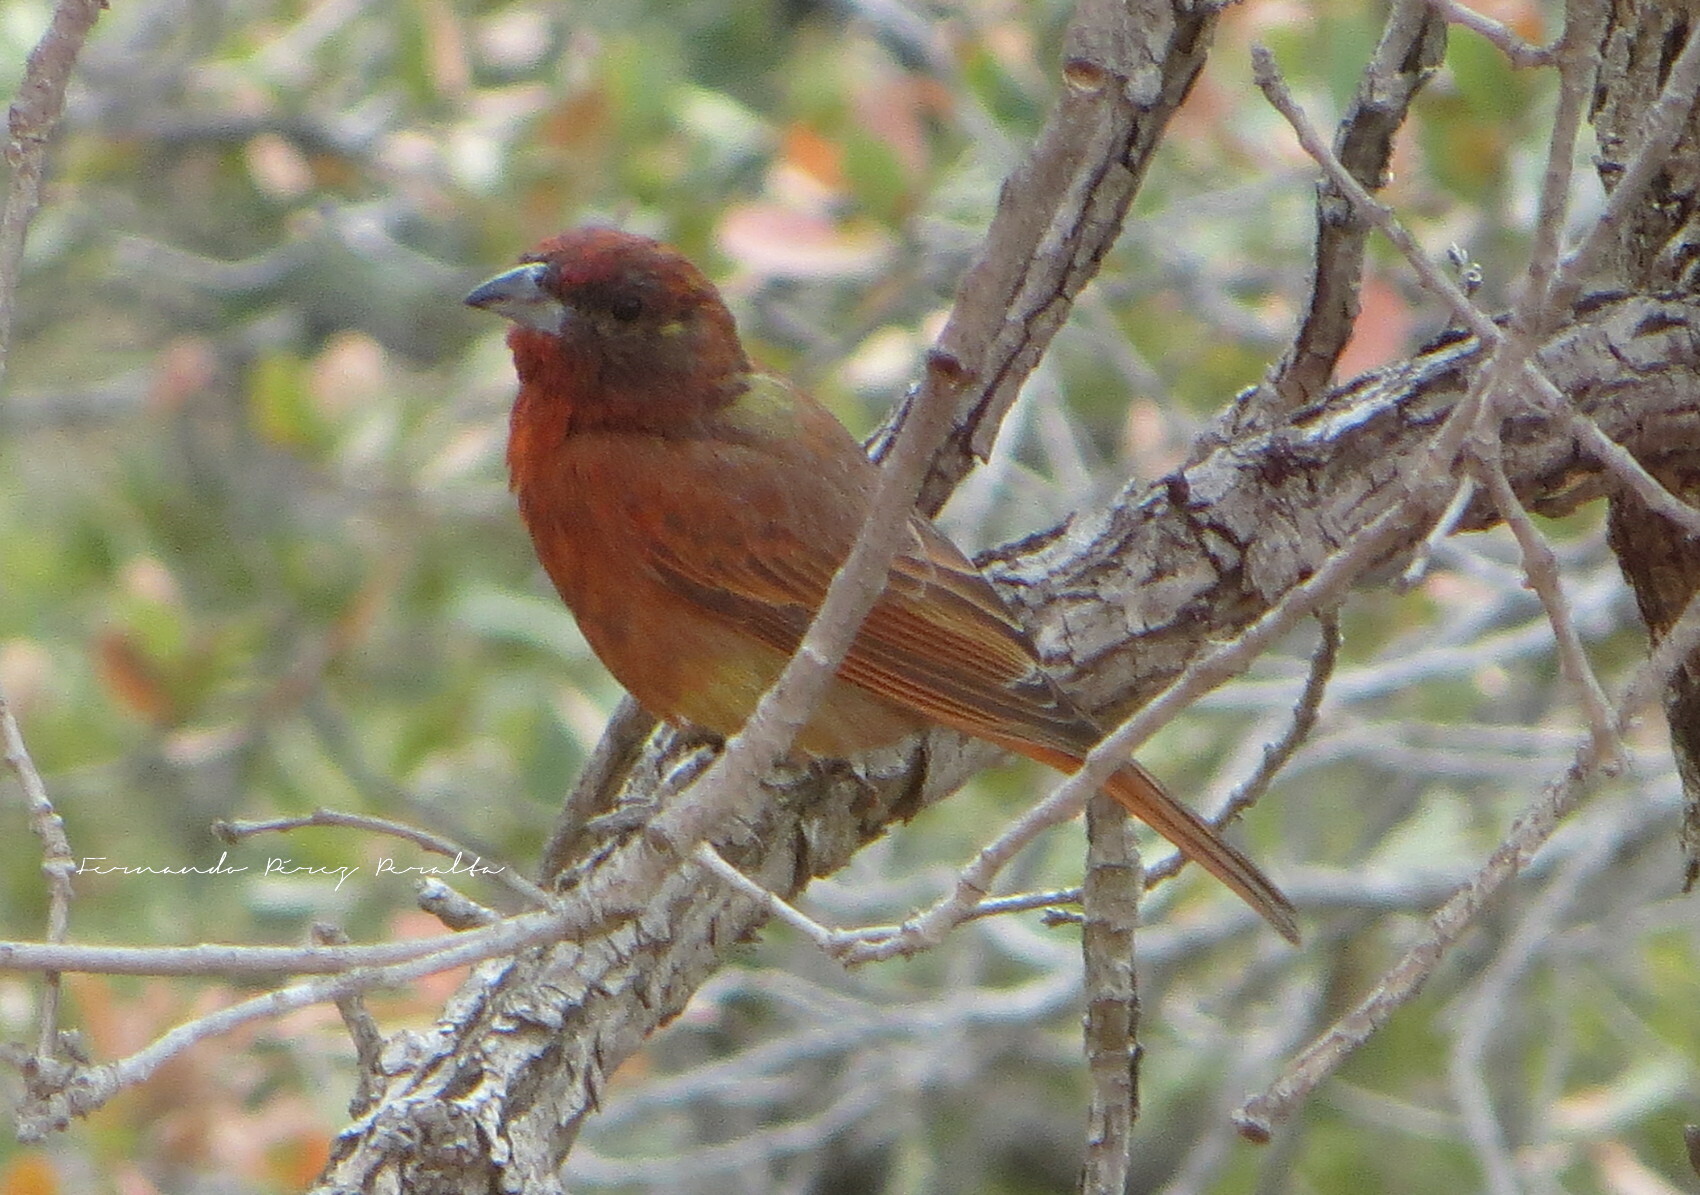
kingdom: Animalia
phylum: Chordata
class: Aves
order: Passeriformes
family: Cardinalidae
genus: Piranga
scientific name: Piranga flava
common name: Red tanager
